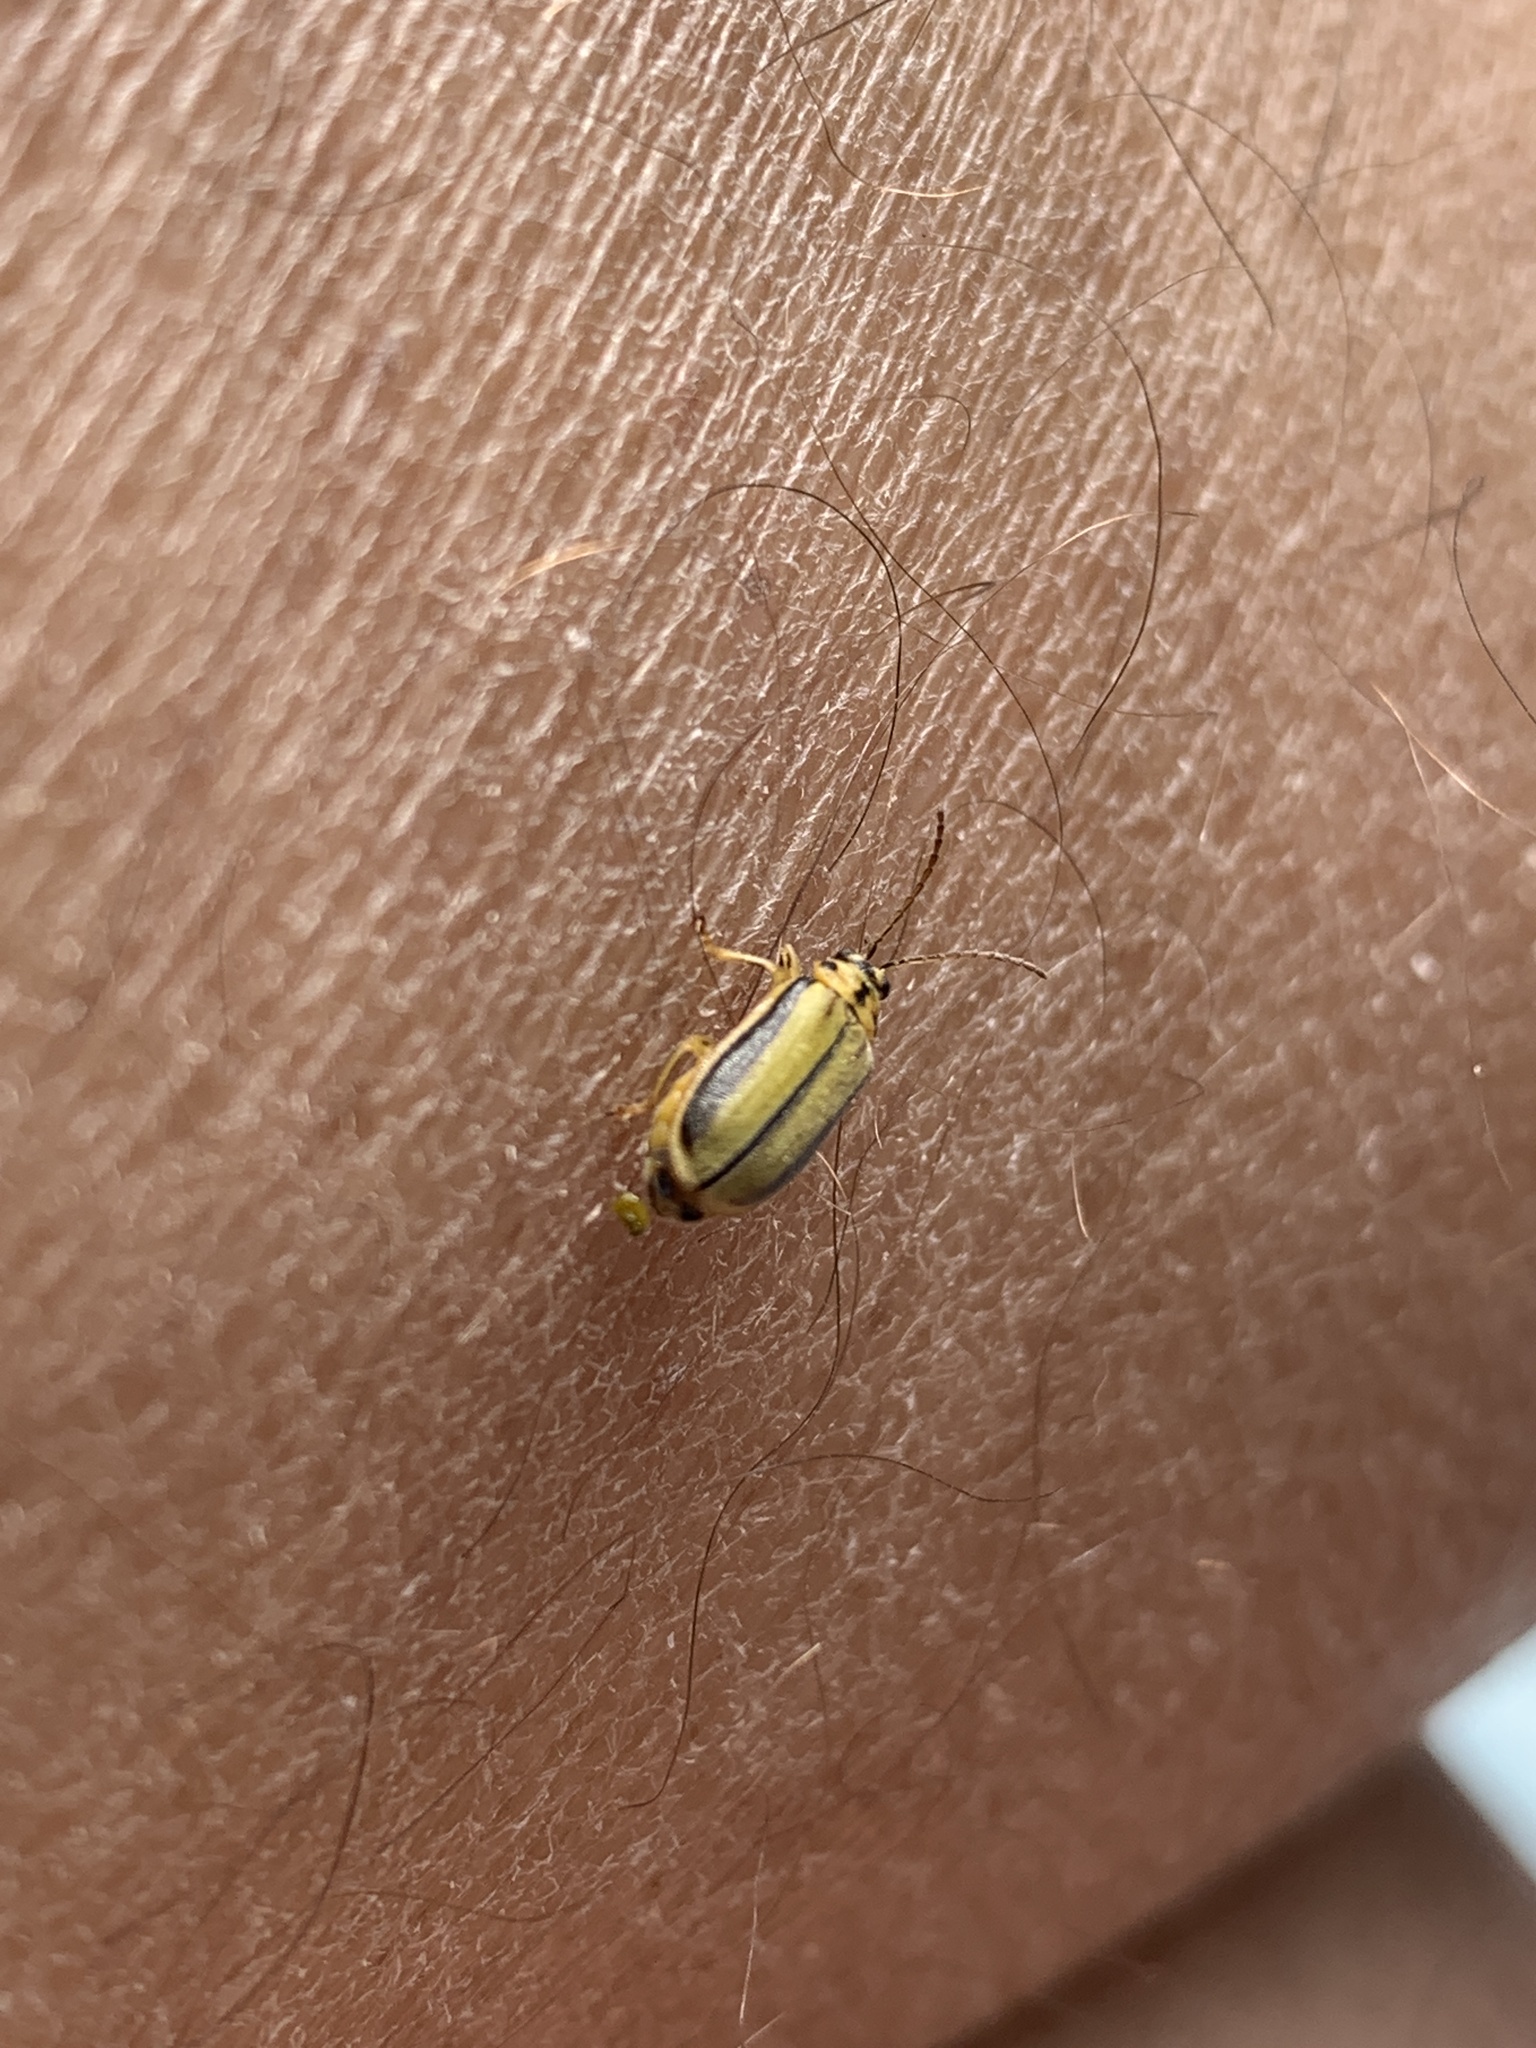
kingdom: Animalia
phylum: Arthropoda
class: Insecta
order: Coleoptera
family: Chrysomelidae
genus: Xanthogaleruca
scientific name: Xanthogaleruca luteola
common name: Elm leaf beetle
